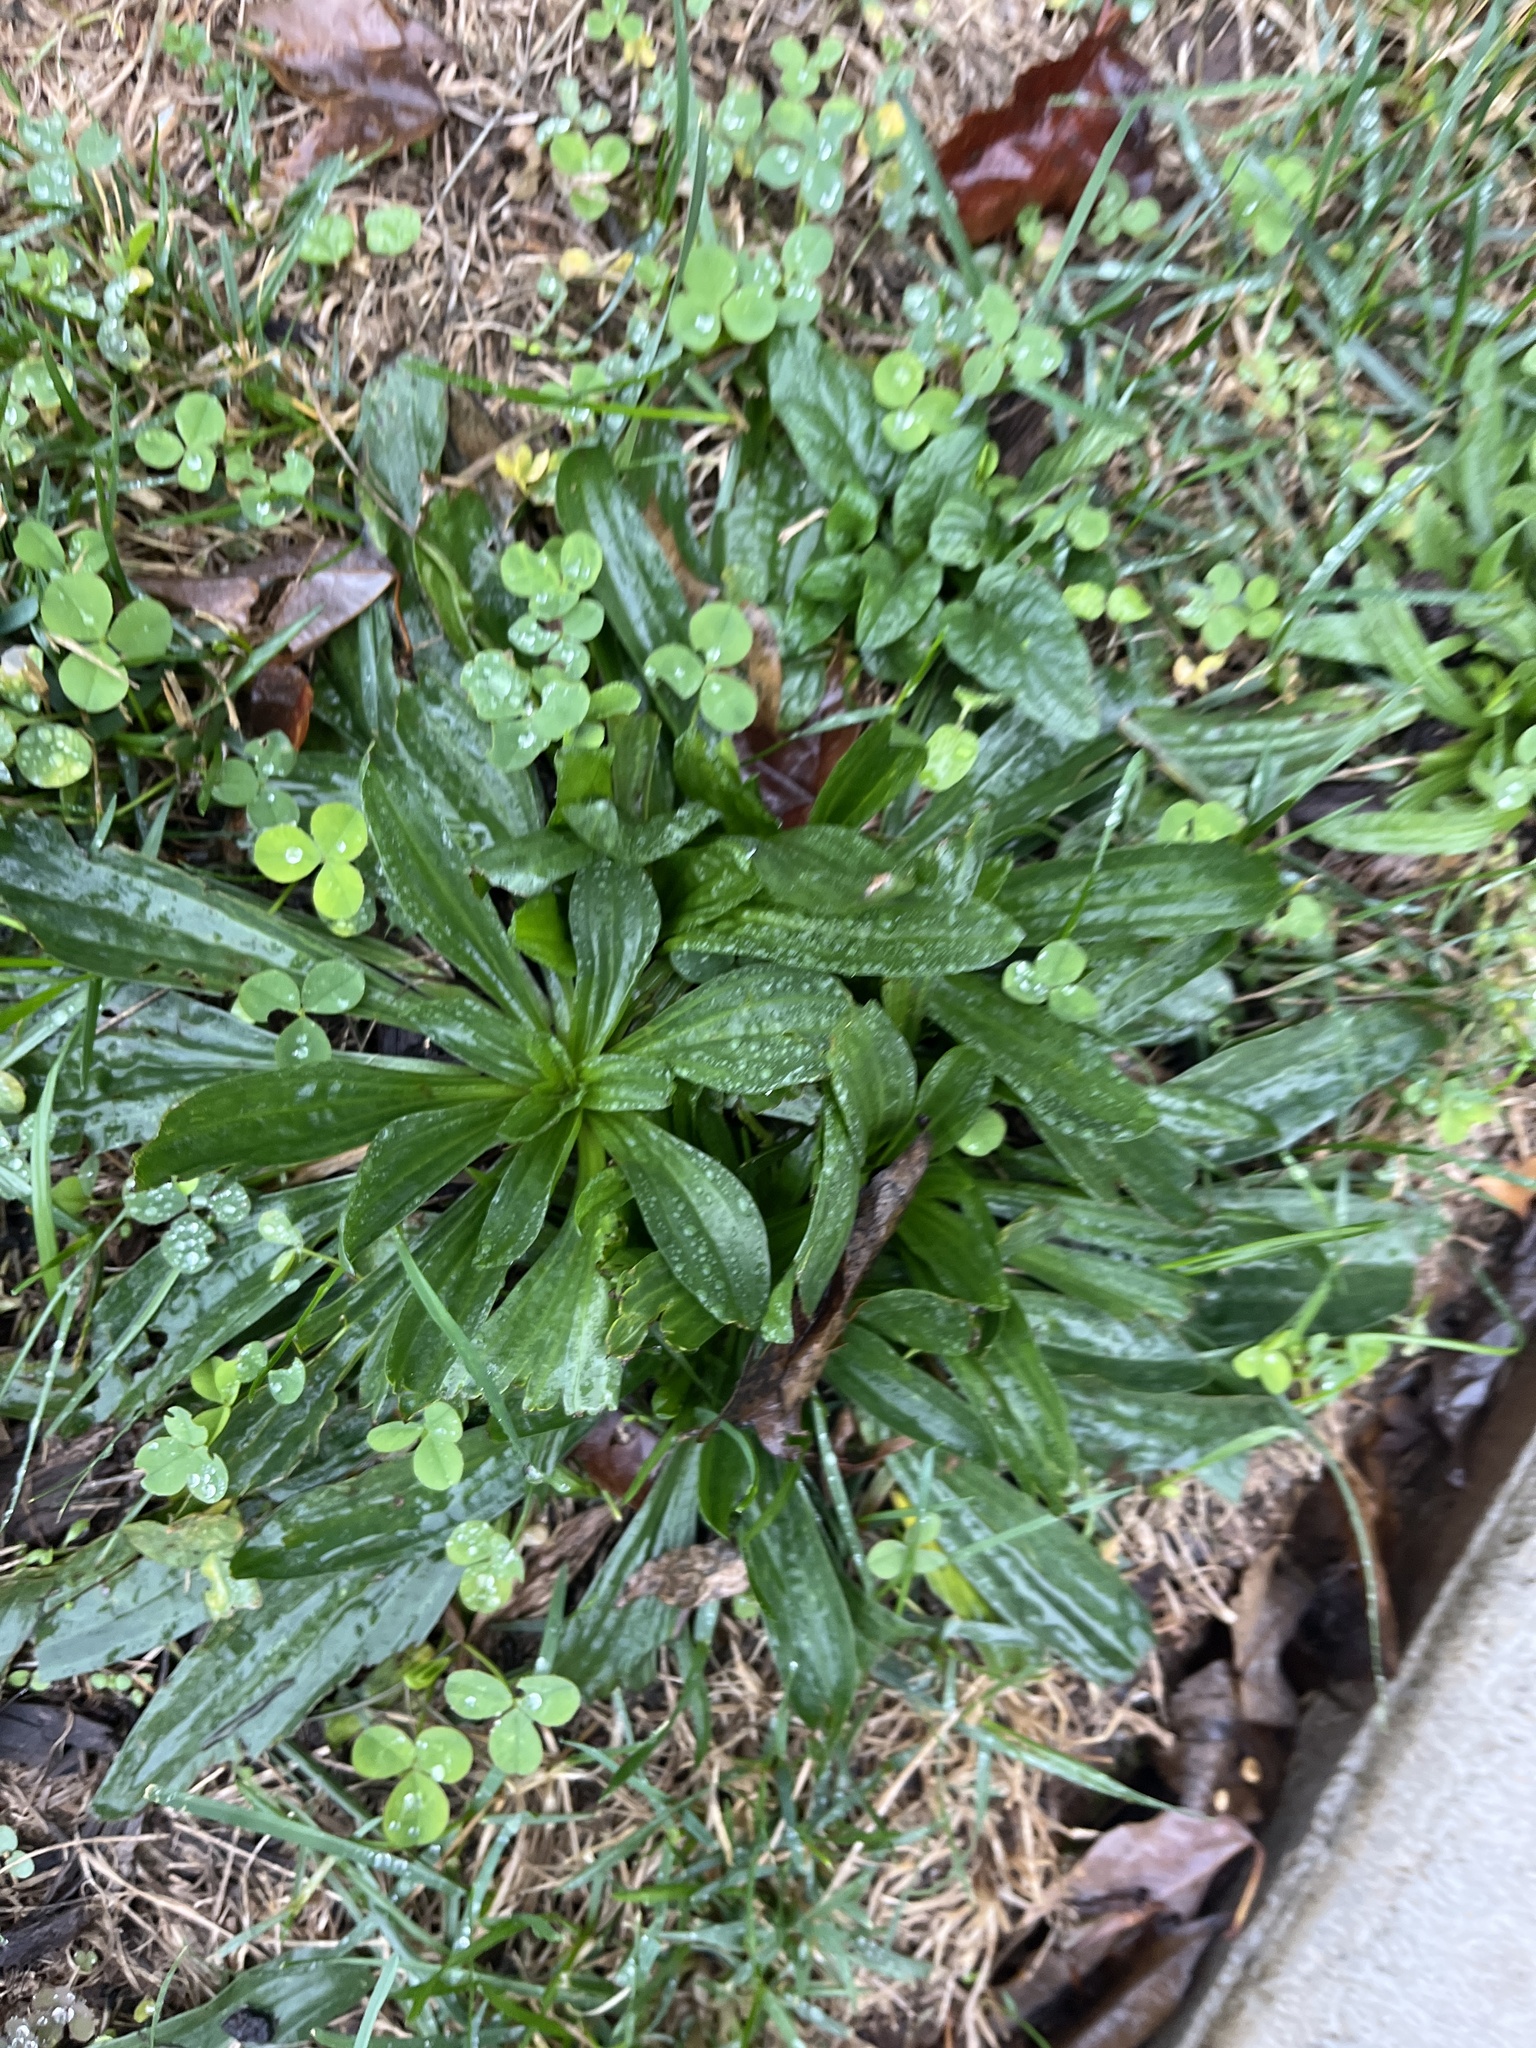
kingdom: Plantae
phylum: Tracheophyta
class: Magnoliopsida
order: Lamiales
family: Plantaginaceae
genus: Plantago
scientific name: Plantago lanceolata
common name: Ribwort plantain
